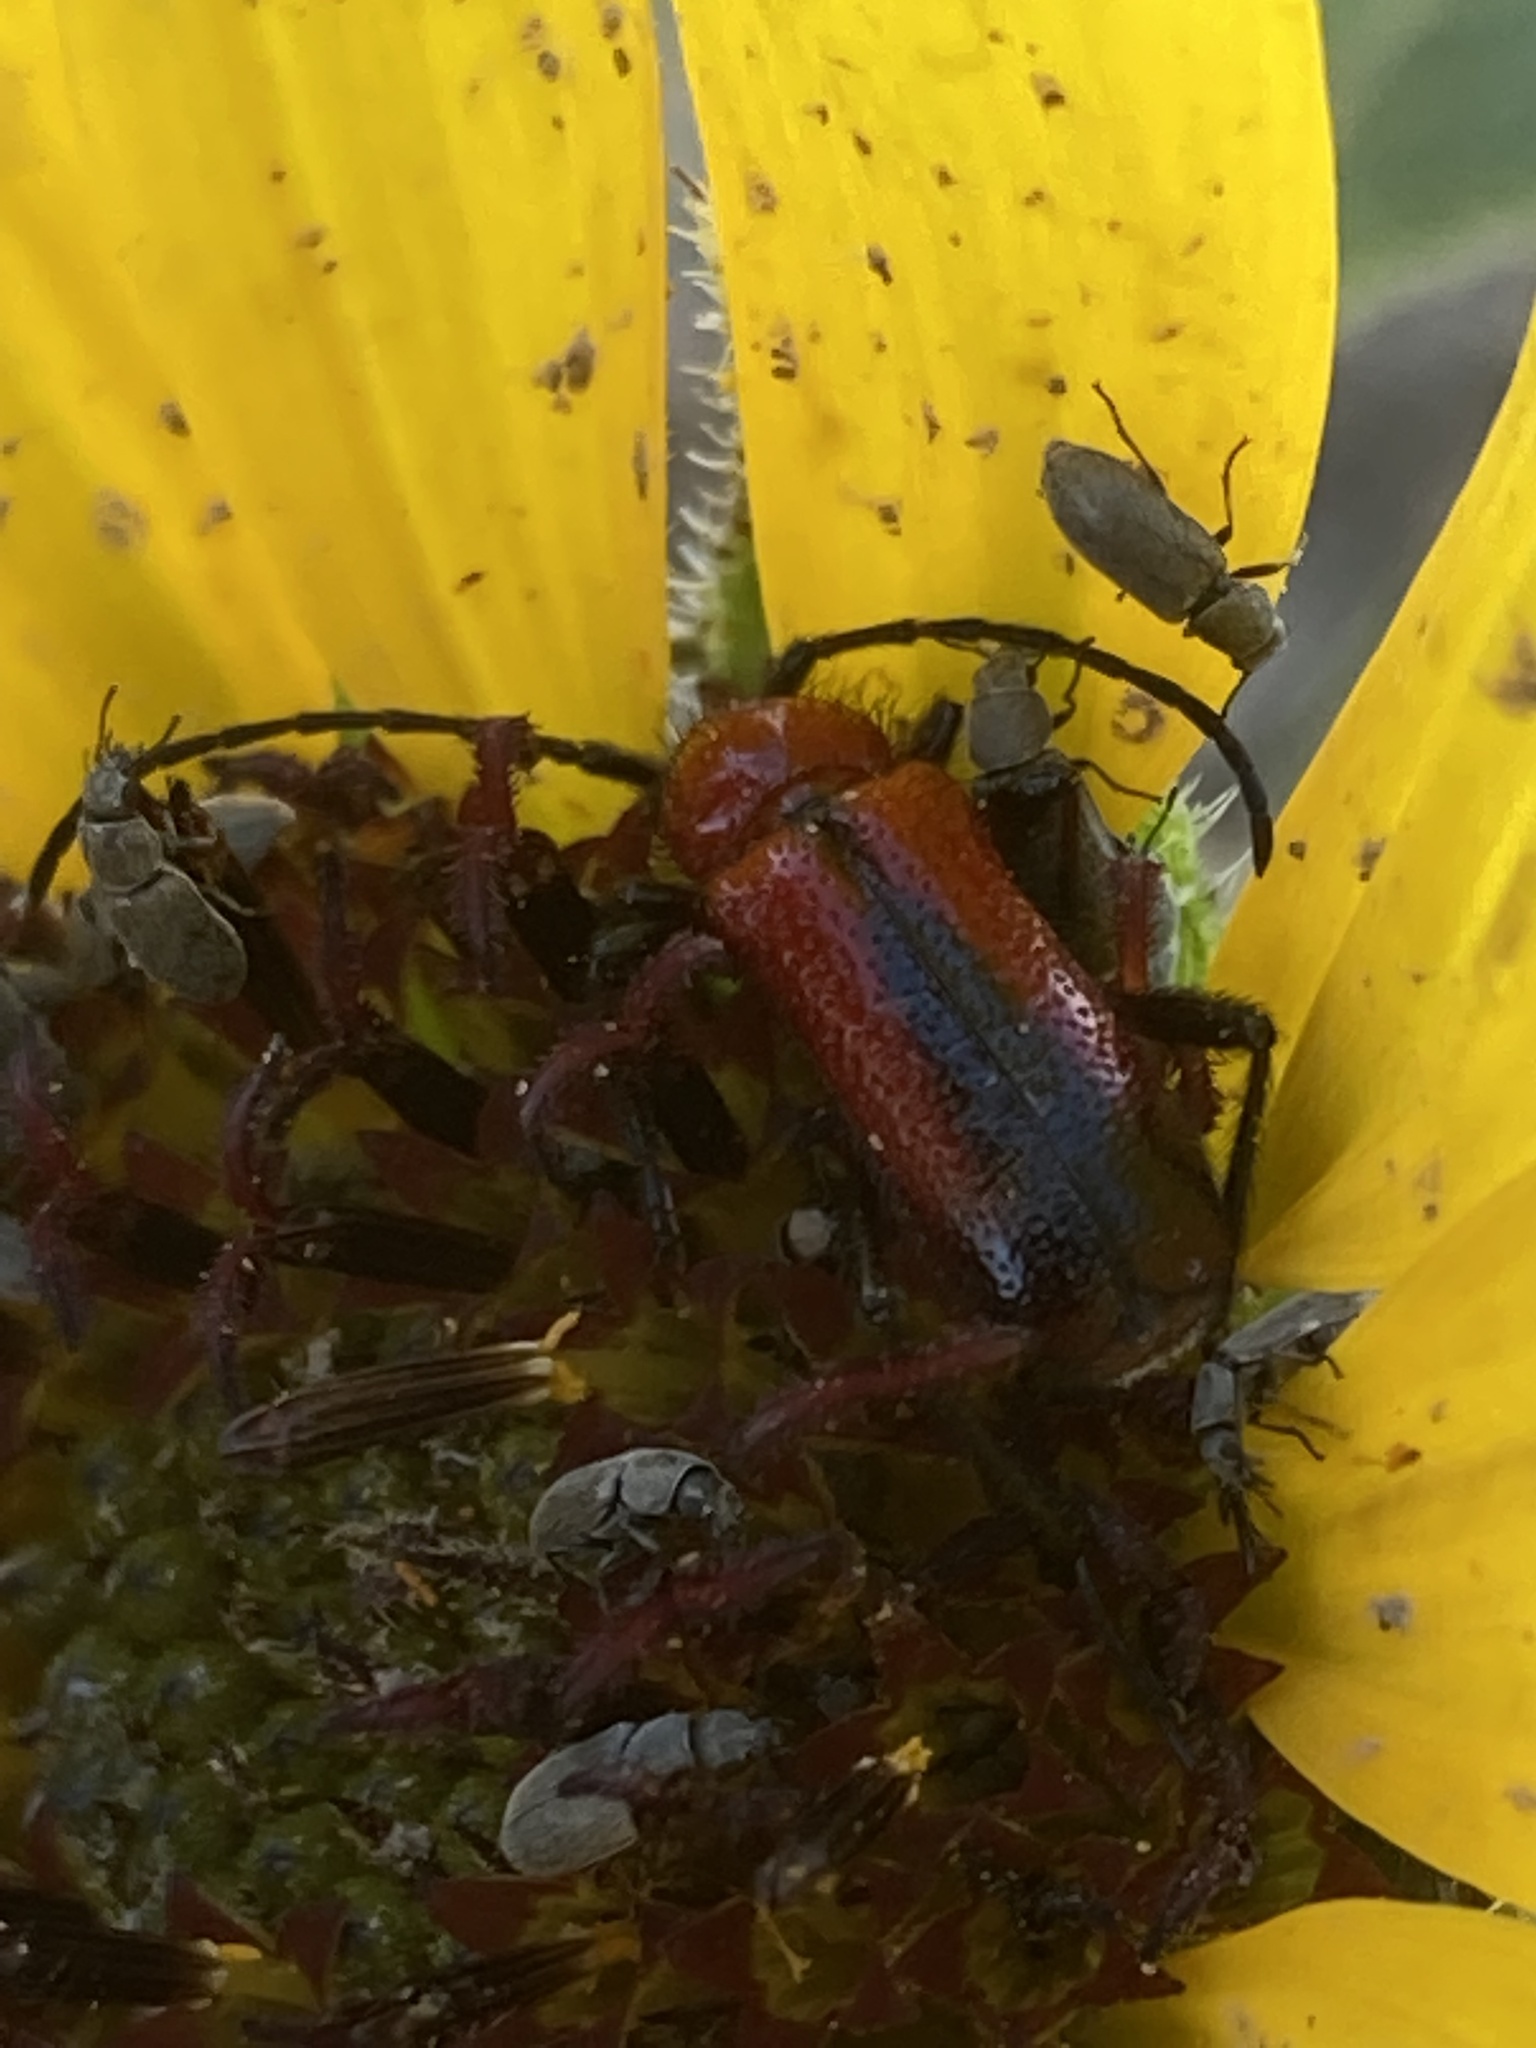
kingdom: Animalia
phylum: Arthropoda
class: Insecta
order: Coleoptera
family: Cerambycidae
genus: Batyle
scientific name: Batyle suturalis
